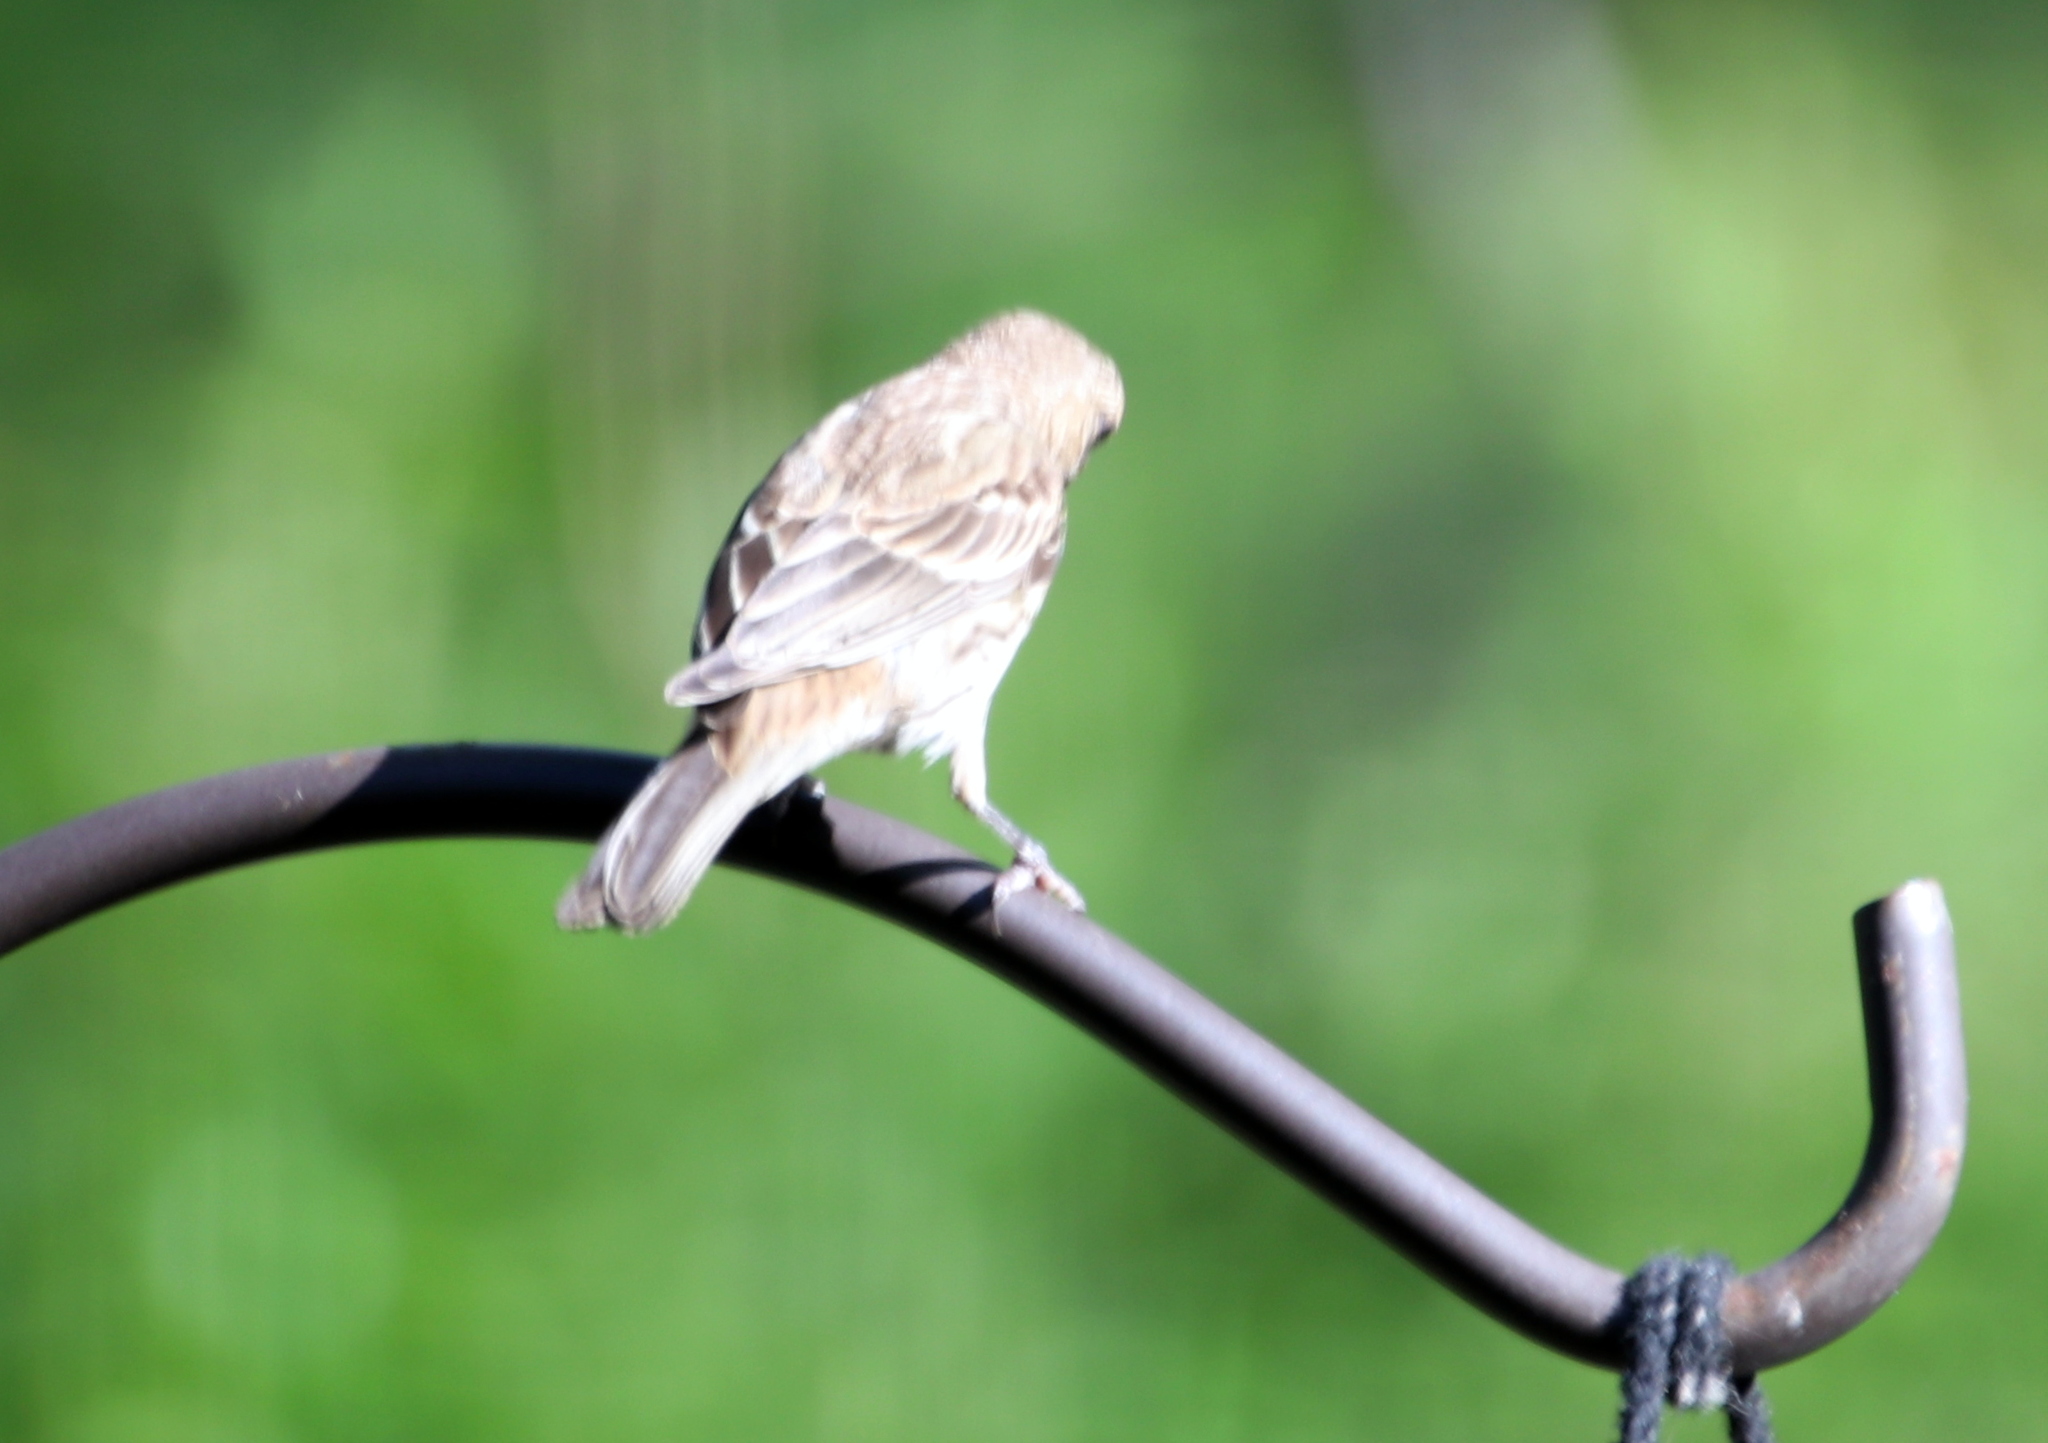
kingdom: Animalia
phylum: Chordata
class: Aves
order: Passeriformes
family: Fringillidae
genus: Haemorhous
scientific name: Haemorhous mexicanus
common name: House finch
